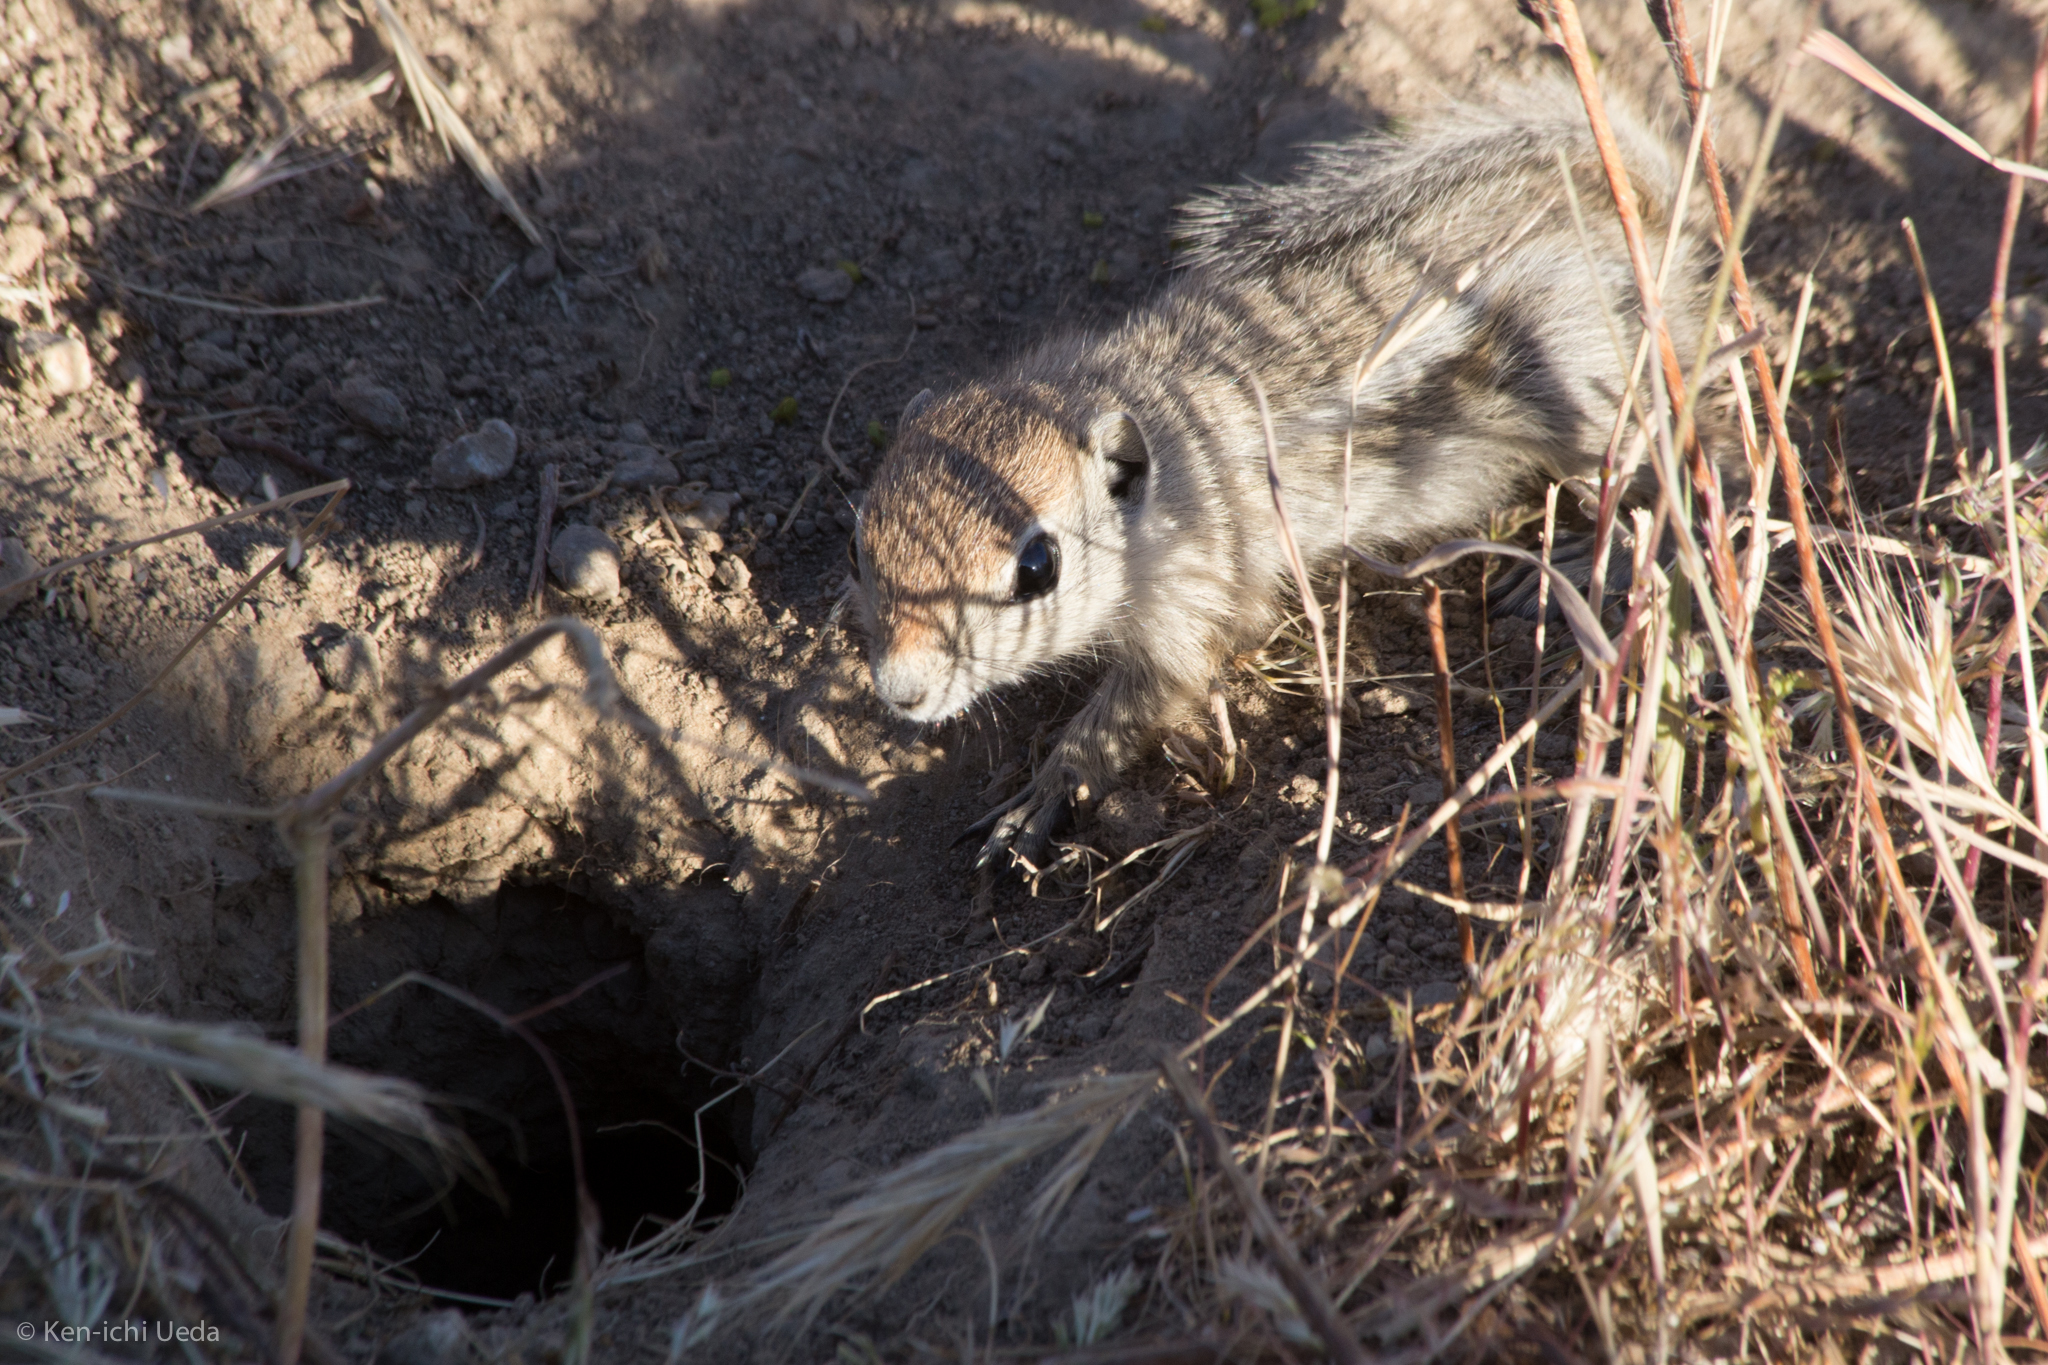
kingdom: Animalia
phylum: Chordata
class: Mammalia
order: Rodentia
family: Sciuridae
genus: Ammospermophilus
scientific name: Ammospermophilus nelsoni
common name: Nelson's antelope squirrel
